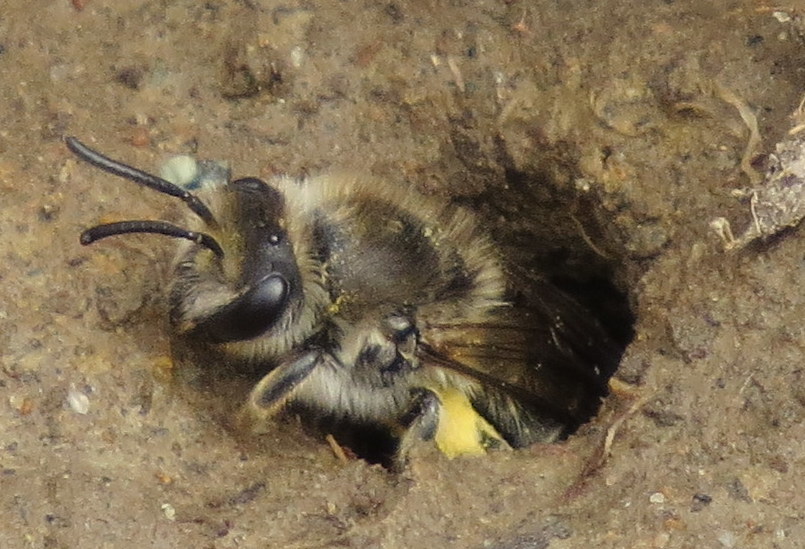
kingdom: Animalia
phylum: Arthropoda
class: Insecta
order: Hymenoptera
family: Colletidae
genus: Colletes
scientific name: Colletes inaequalis
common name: Unequal cellophane bee
